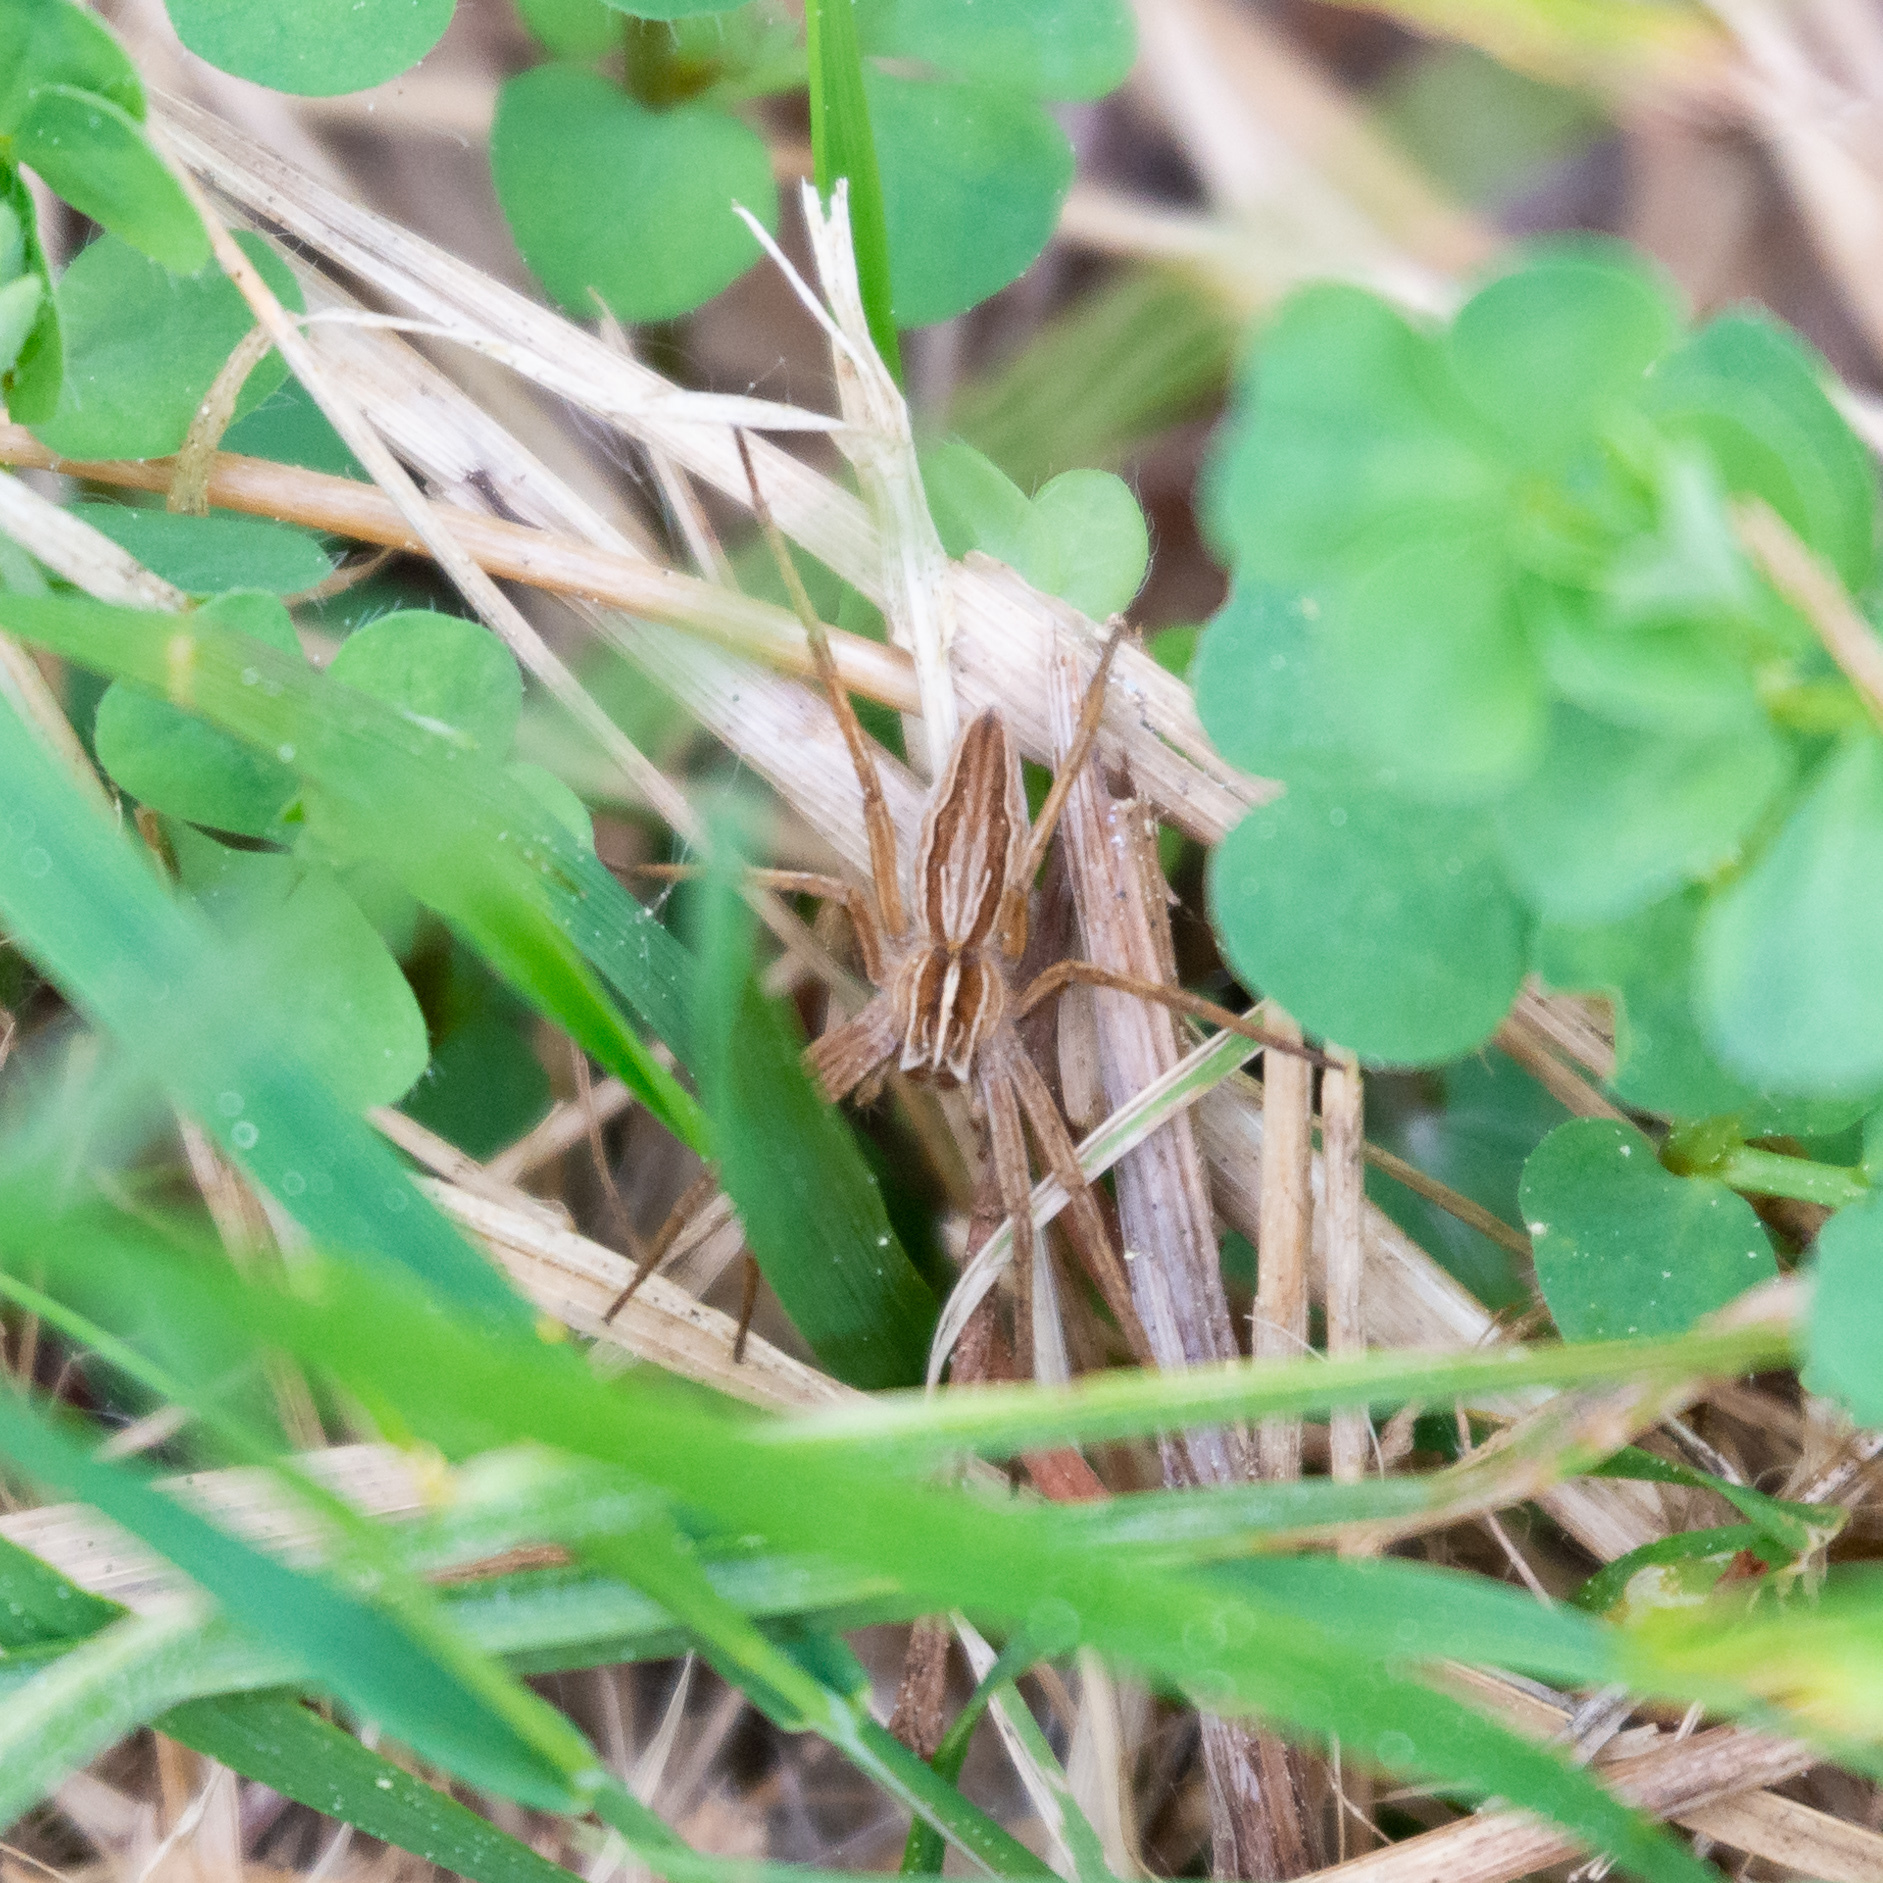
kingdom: Animalia
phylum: Arthropoda
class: Arachnida
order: Araneae
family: Pisauridae
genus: Pisaura
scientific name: Pisaura mirabilis
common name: Tent spider
